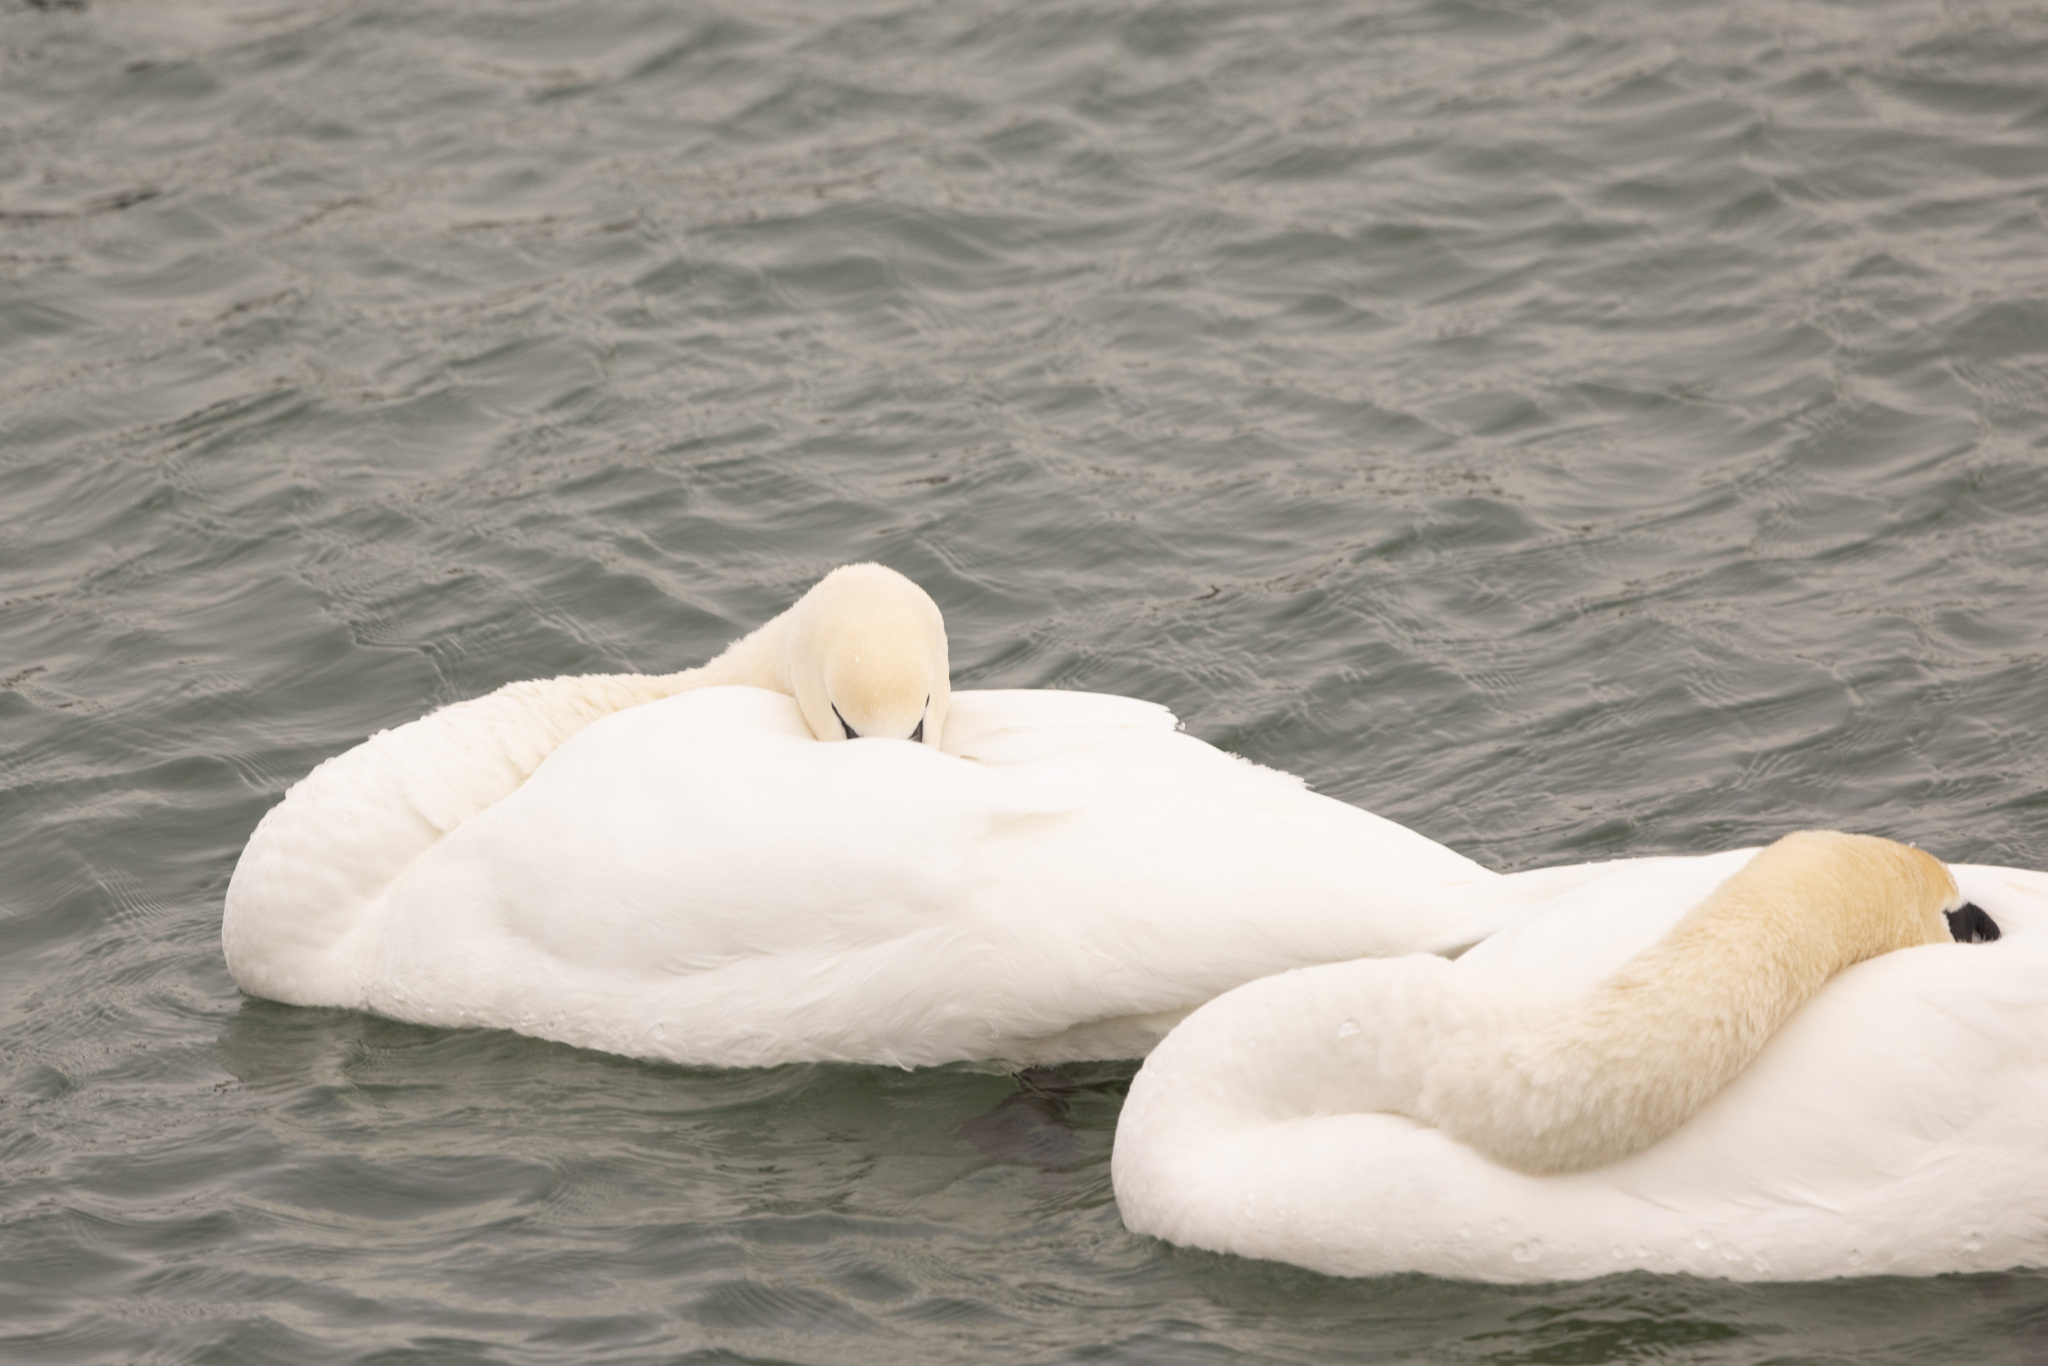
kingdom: Animalia
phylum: Chordata
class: Aves
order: Anseriformes
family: Anatidae
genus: Cygnus
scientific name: Cygnus olor
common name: Mute swan
